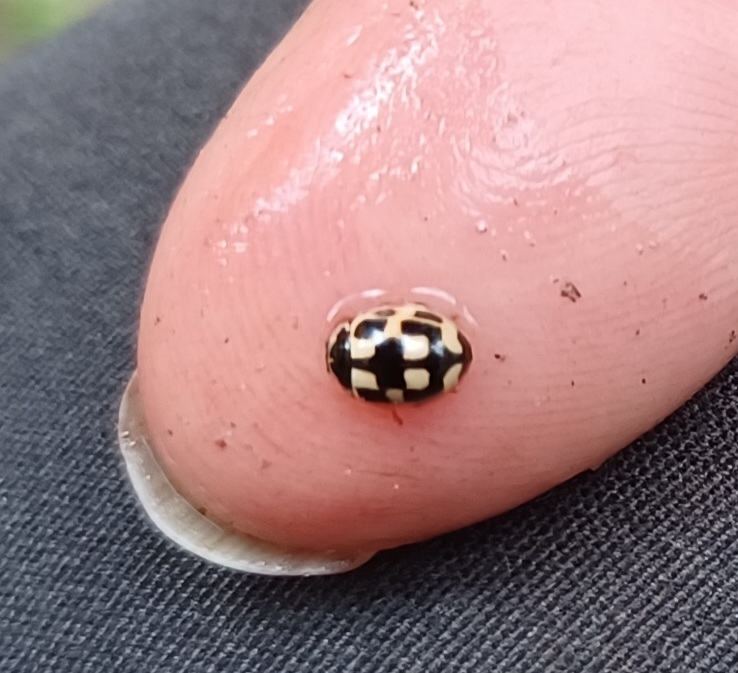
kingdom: Animalia
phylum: Arthropoda
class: Insecta
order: Coleoptera
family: Coccinellidae
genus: Propylaea
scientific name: Propylaea quatuordecimpunctata
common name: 14-spotted ladybird beetle
